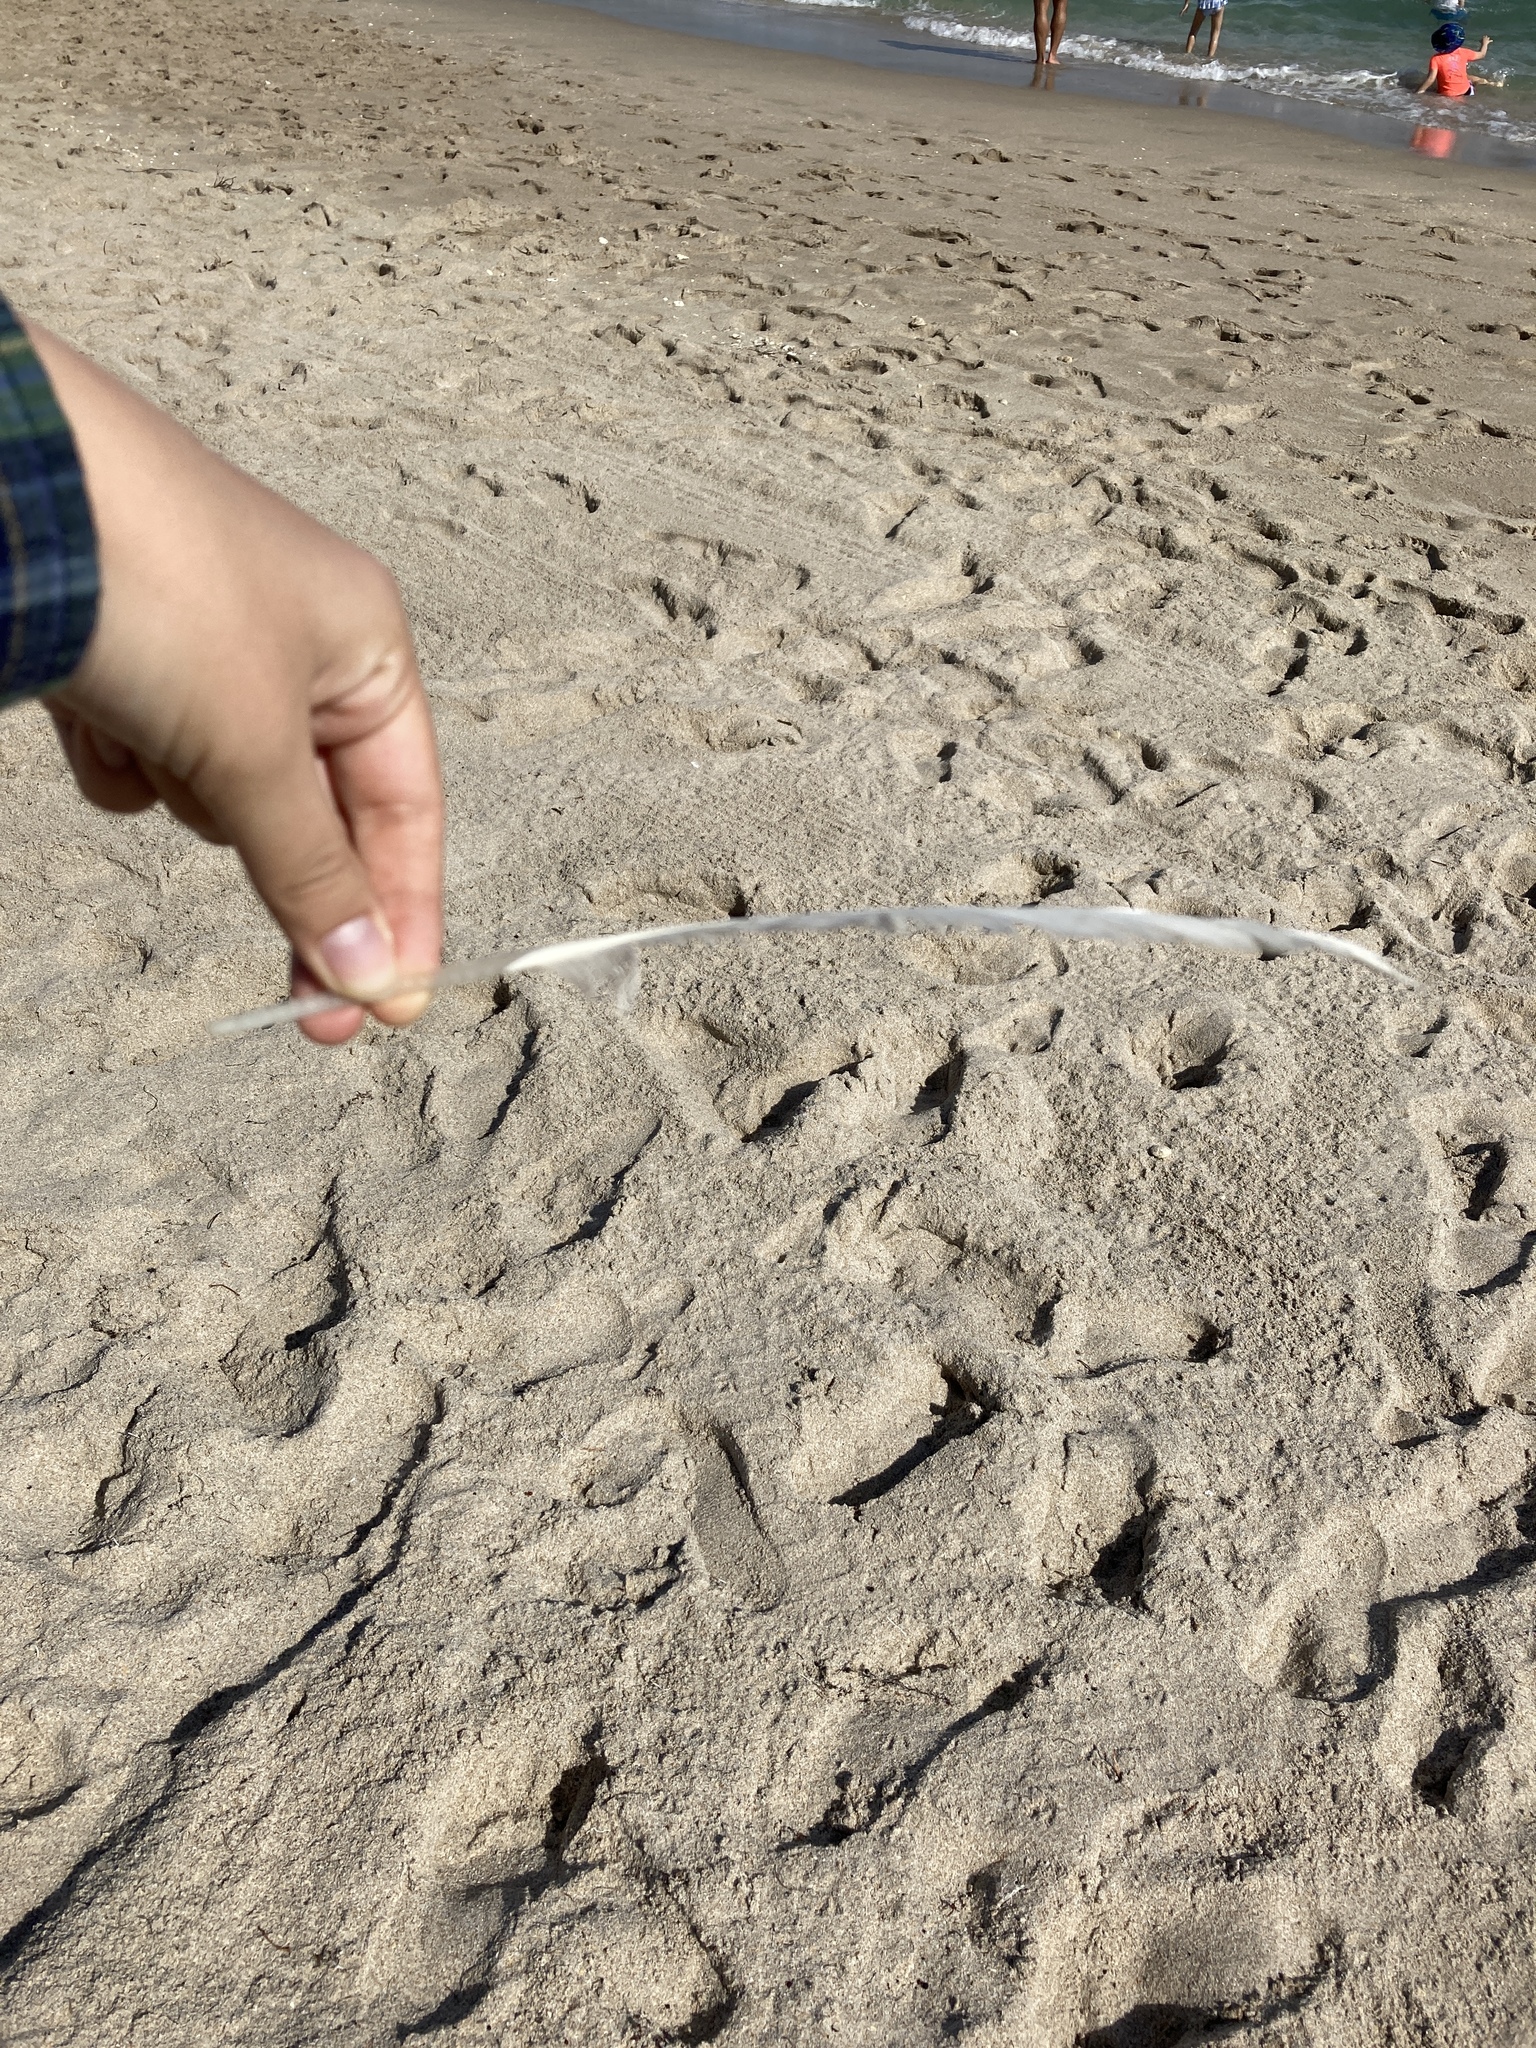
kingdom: Animalia
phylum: Chordata
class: Aves
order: Anseriformes
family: Anatidae
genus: Cairina
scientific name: Cairina moschata
